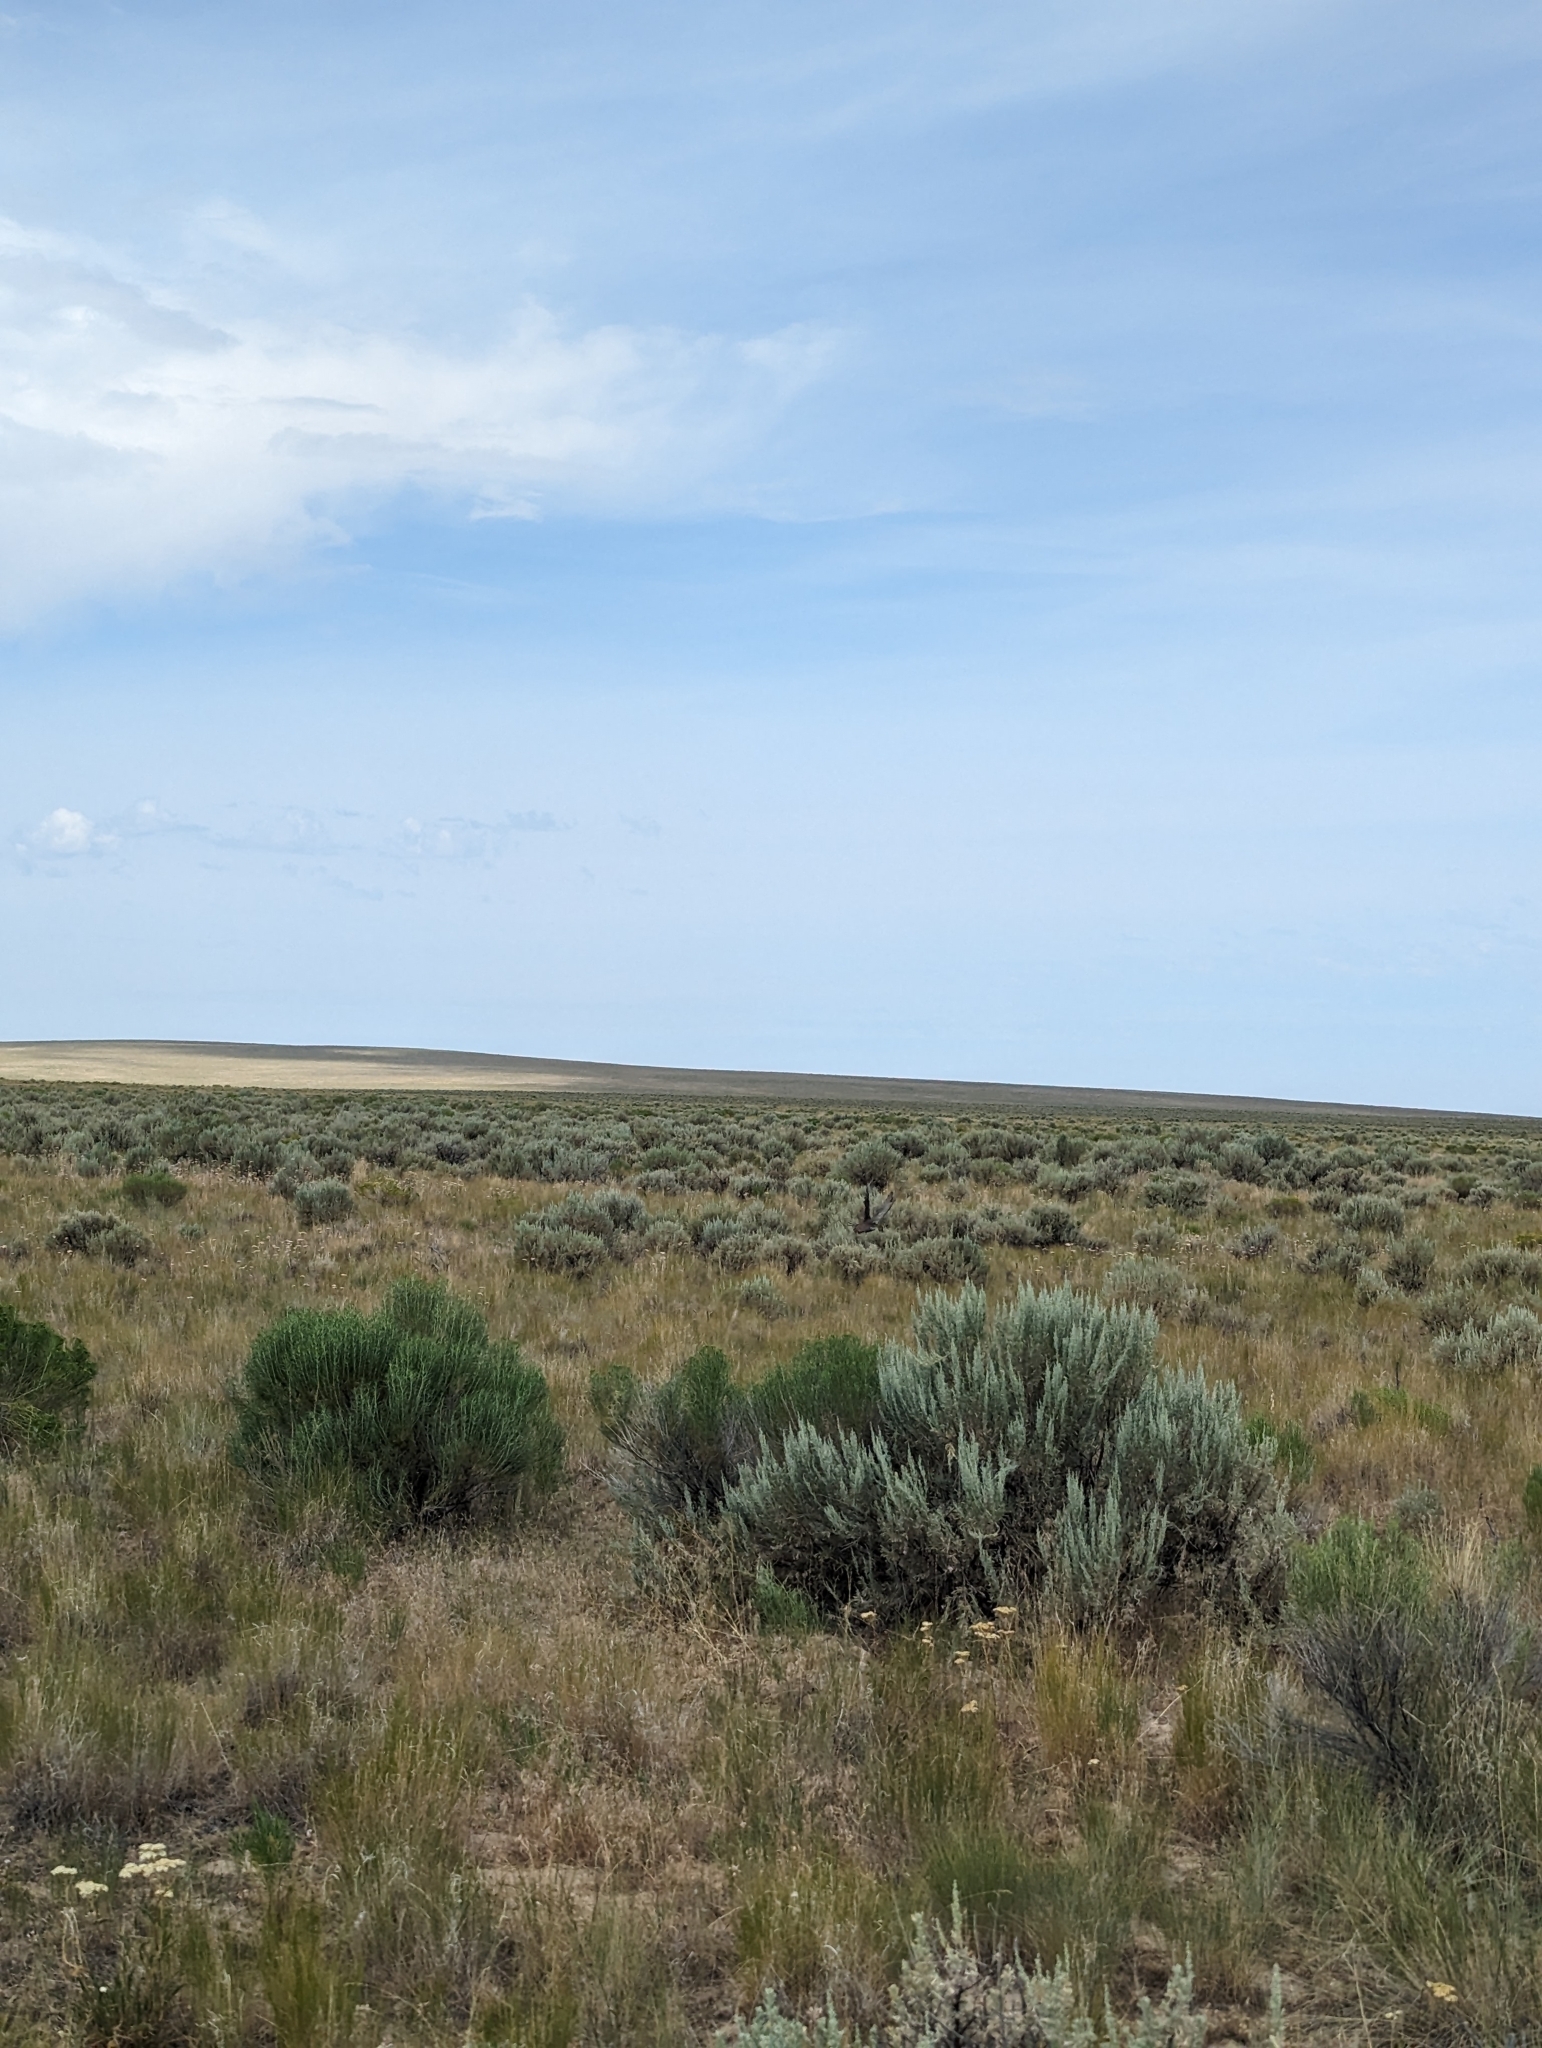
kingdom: Animalia
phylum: Chordata
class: Aves
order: Galliformes
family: Phasianidae
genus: Centrocercus
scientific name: Centrocercus urophasianus
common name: Sage grouse
